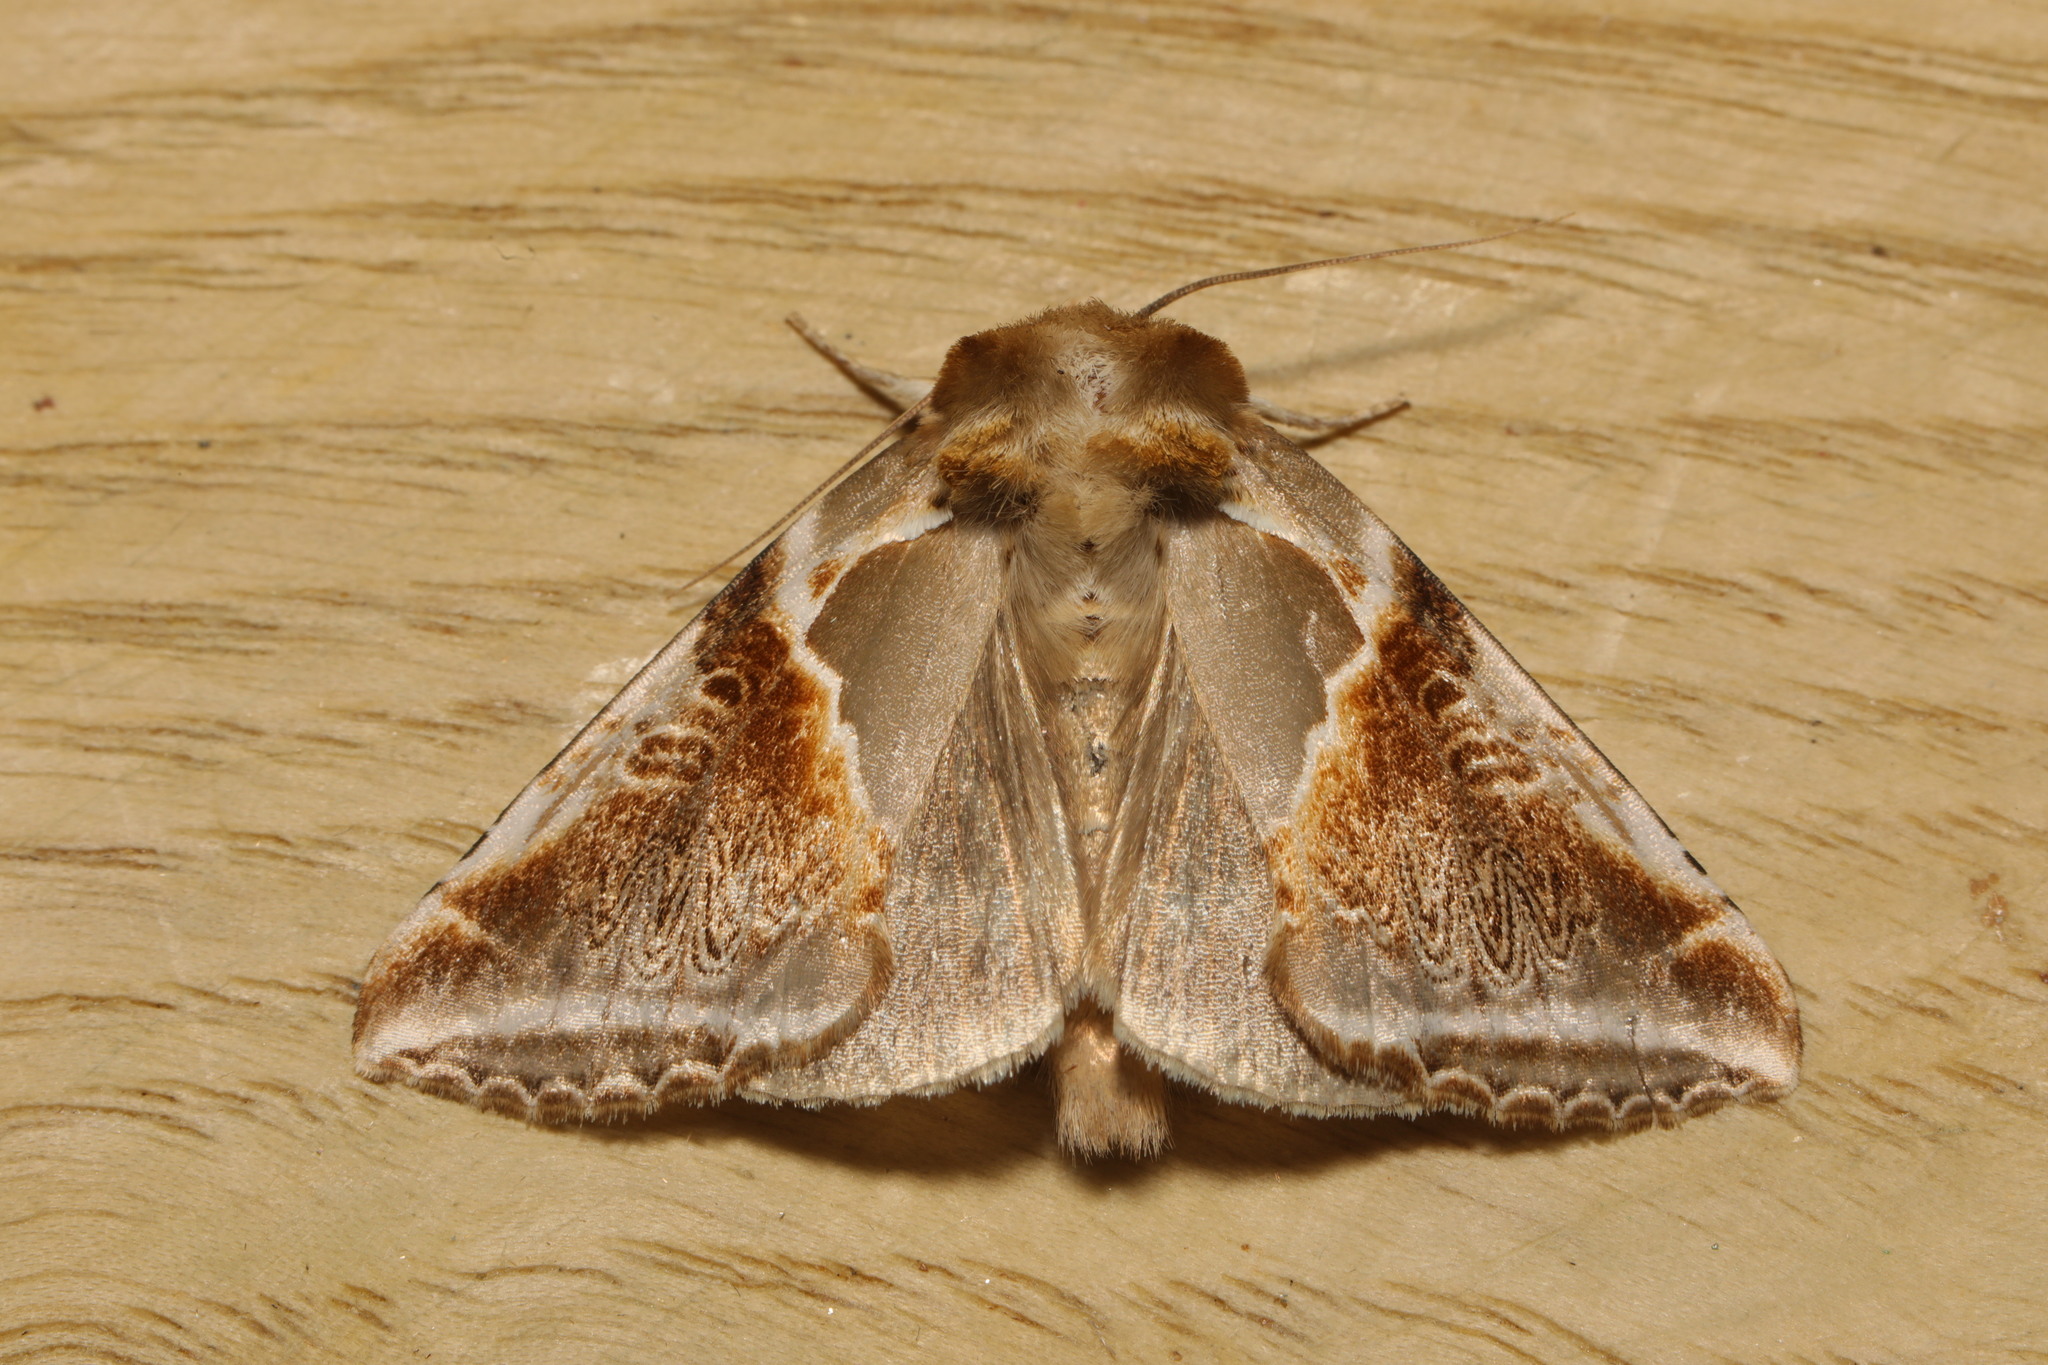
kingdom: Animalia
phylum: Arthropoda
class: Insecta
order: Lepidoptera
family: Drepanidae
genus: Habrosyne
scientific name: Habrosyne pyritoides
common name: Buff arches
